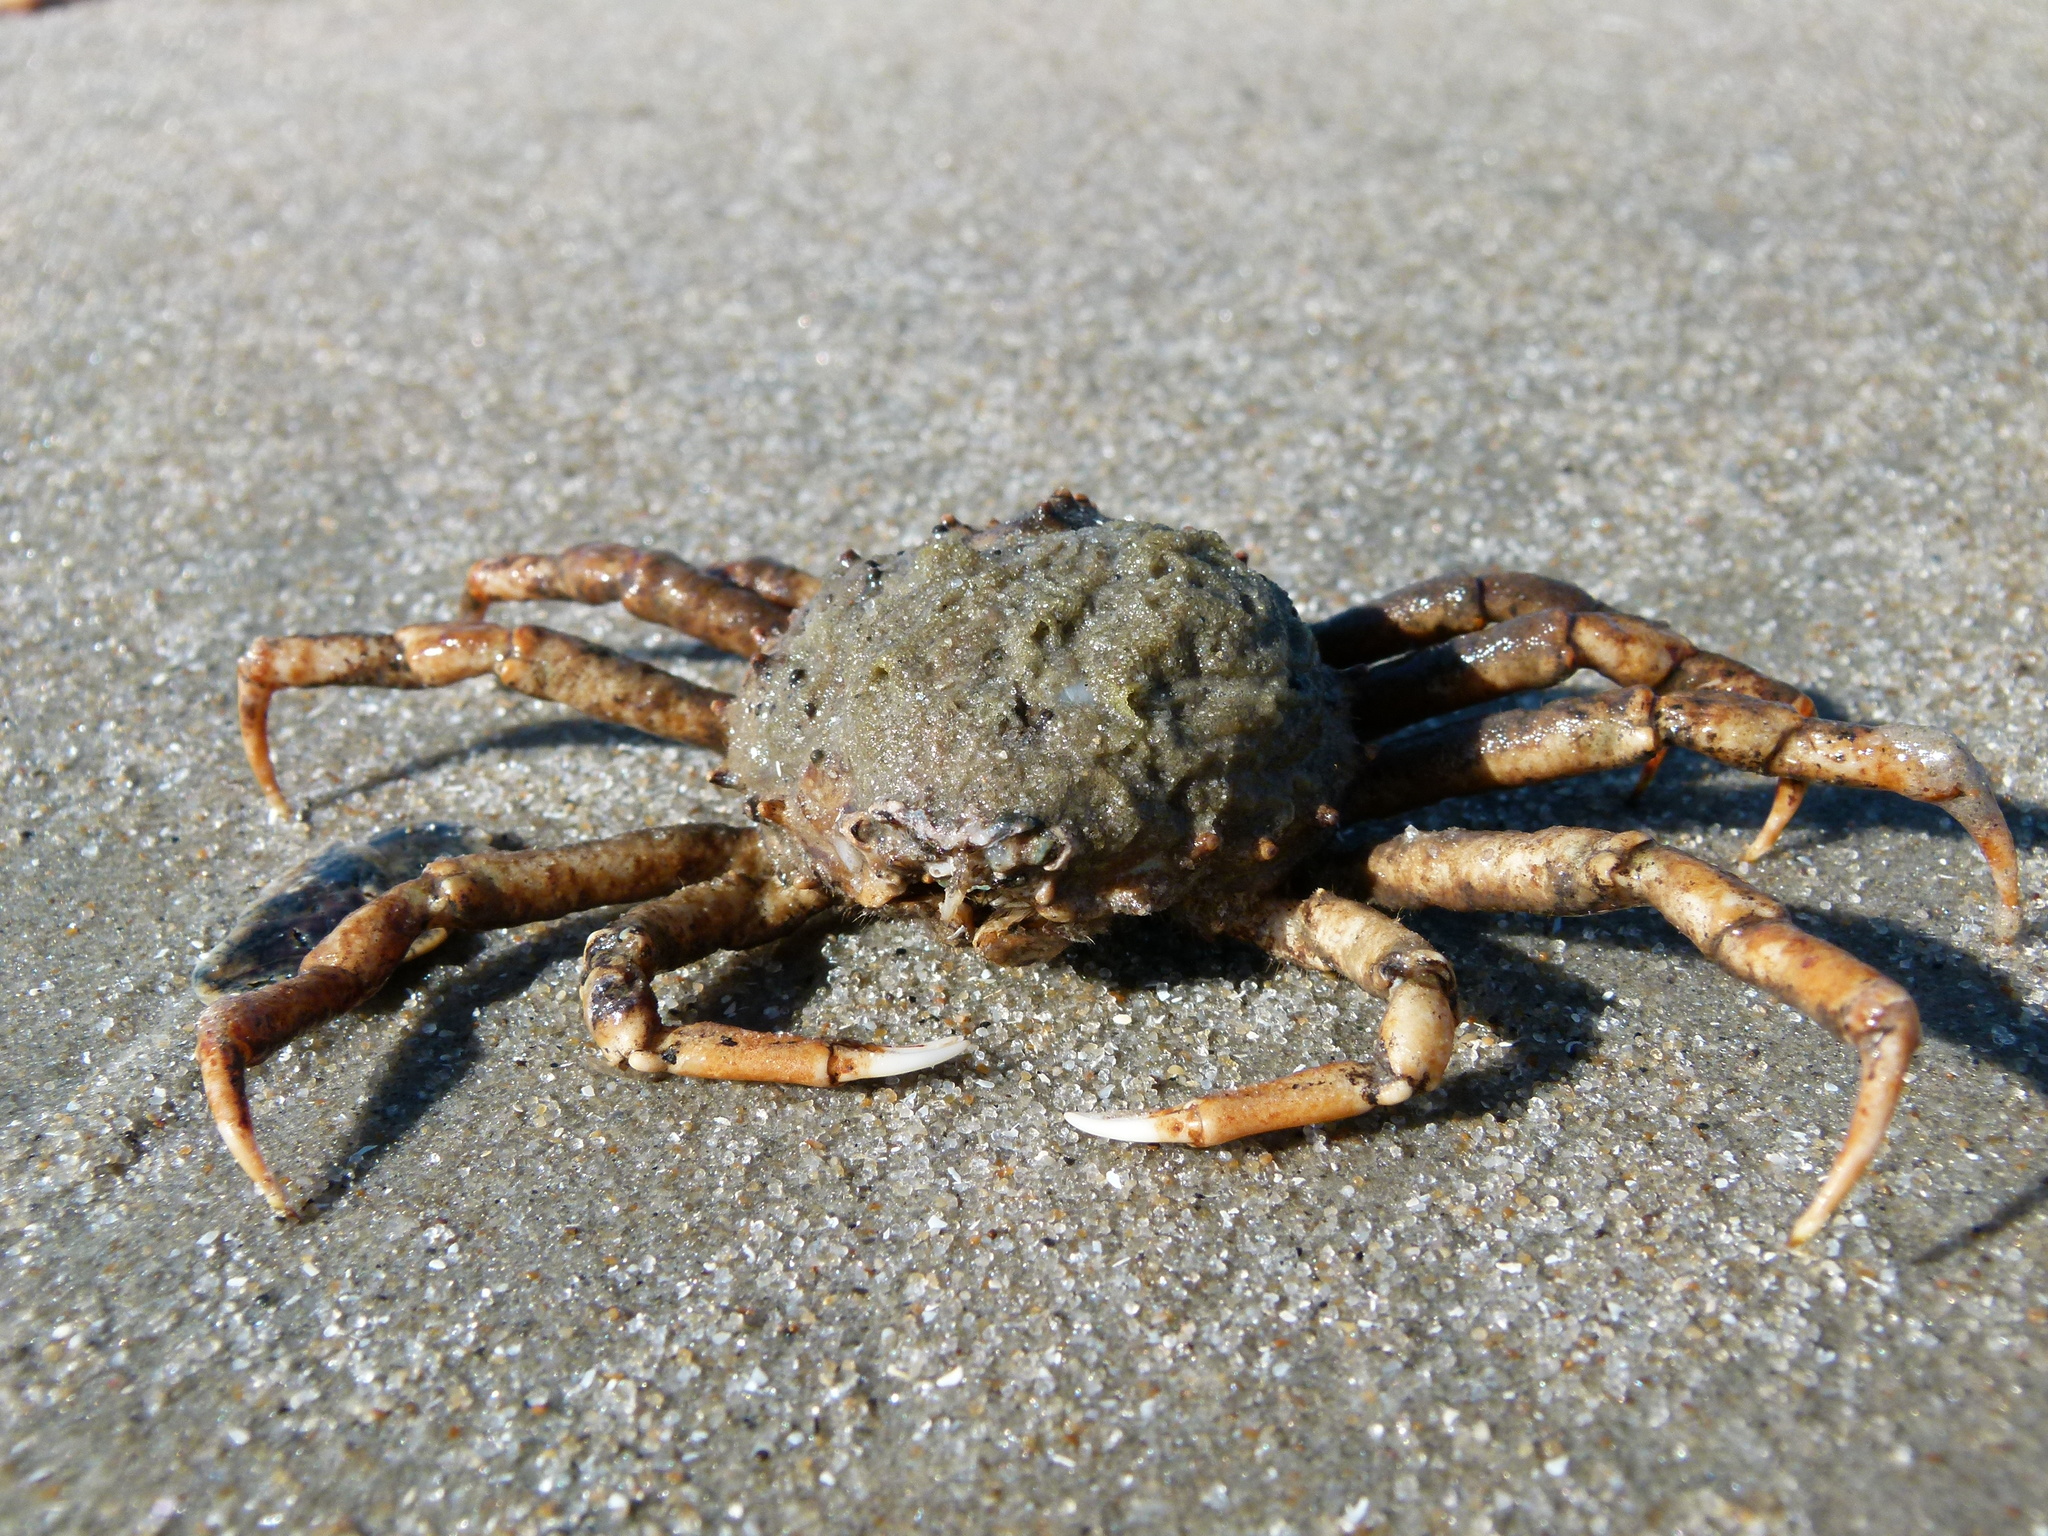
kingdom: Animalia
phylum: Arthropoda
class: Malacostraca
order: Decapoda
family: Epialtidae
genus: Libinia
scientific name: Libinia emarginata
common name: Common spider crab
